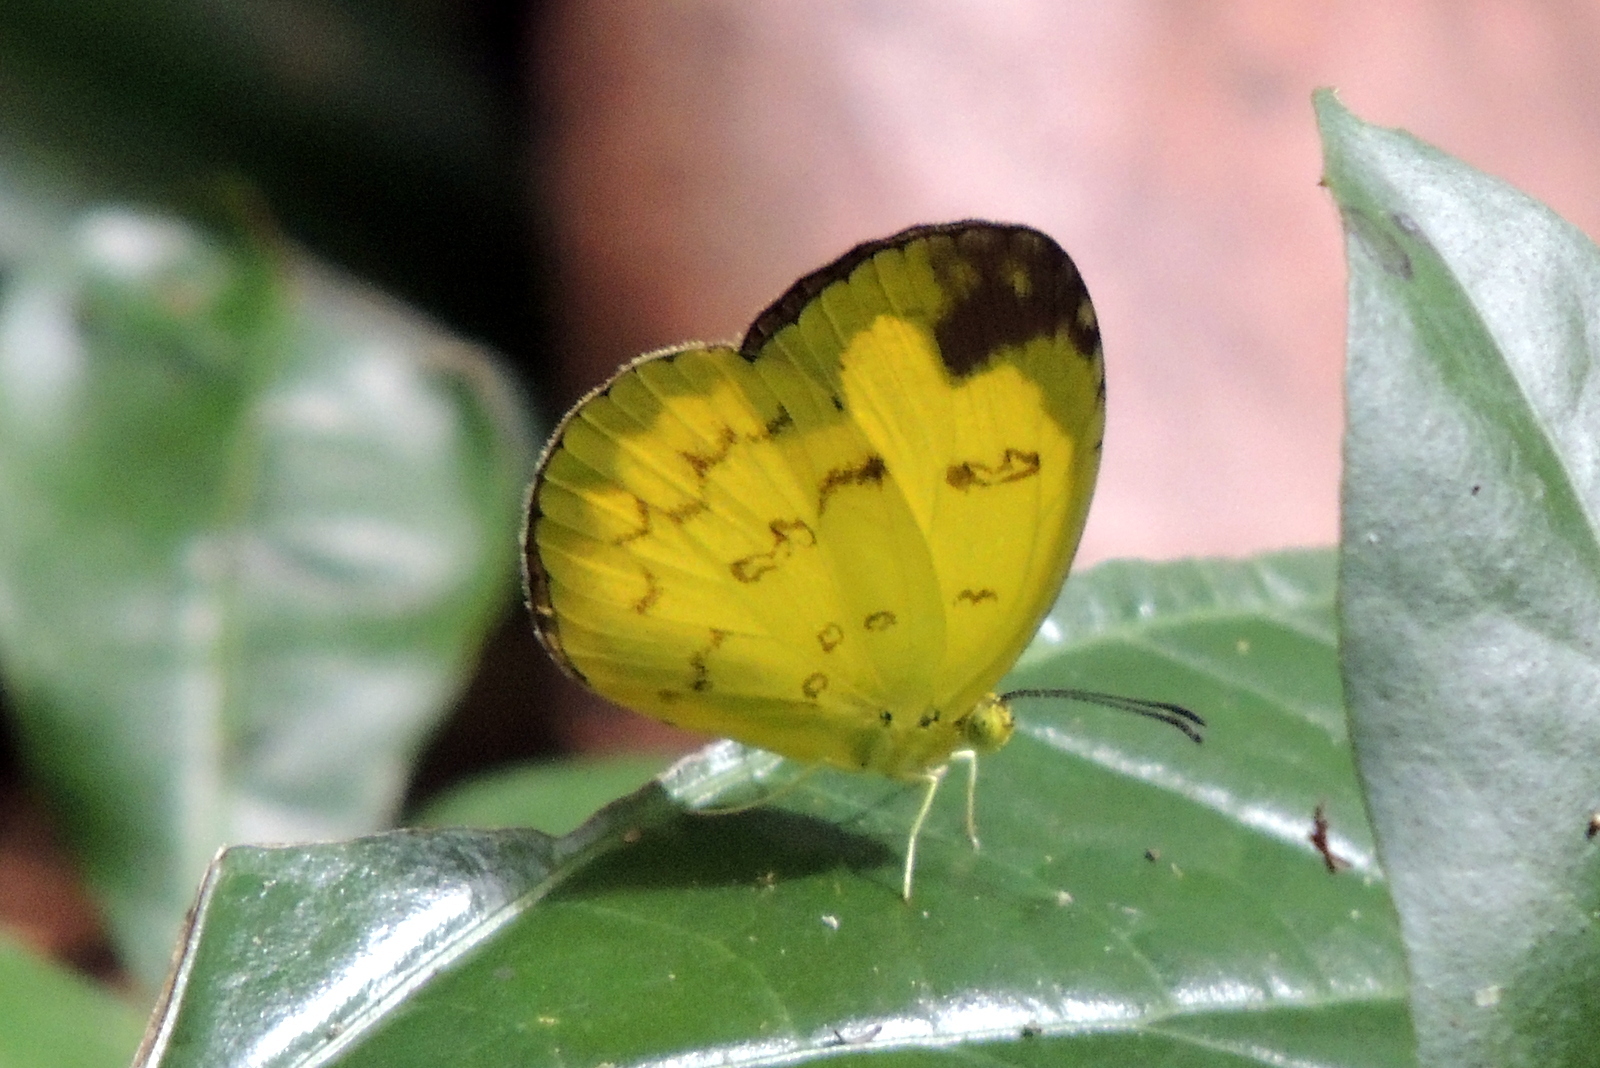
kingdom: Animalia
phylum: Arthropoda
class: Insecta
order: Lepidoptera
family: Pieridae
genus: Eurema
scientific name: Eurema andersoni
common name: One-spot yellow grass
